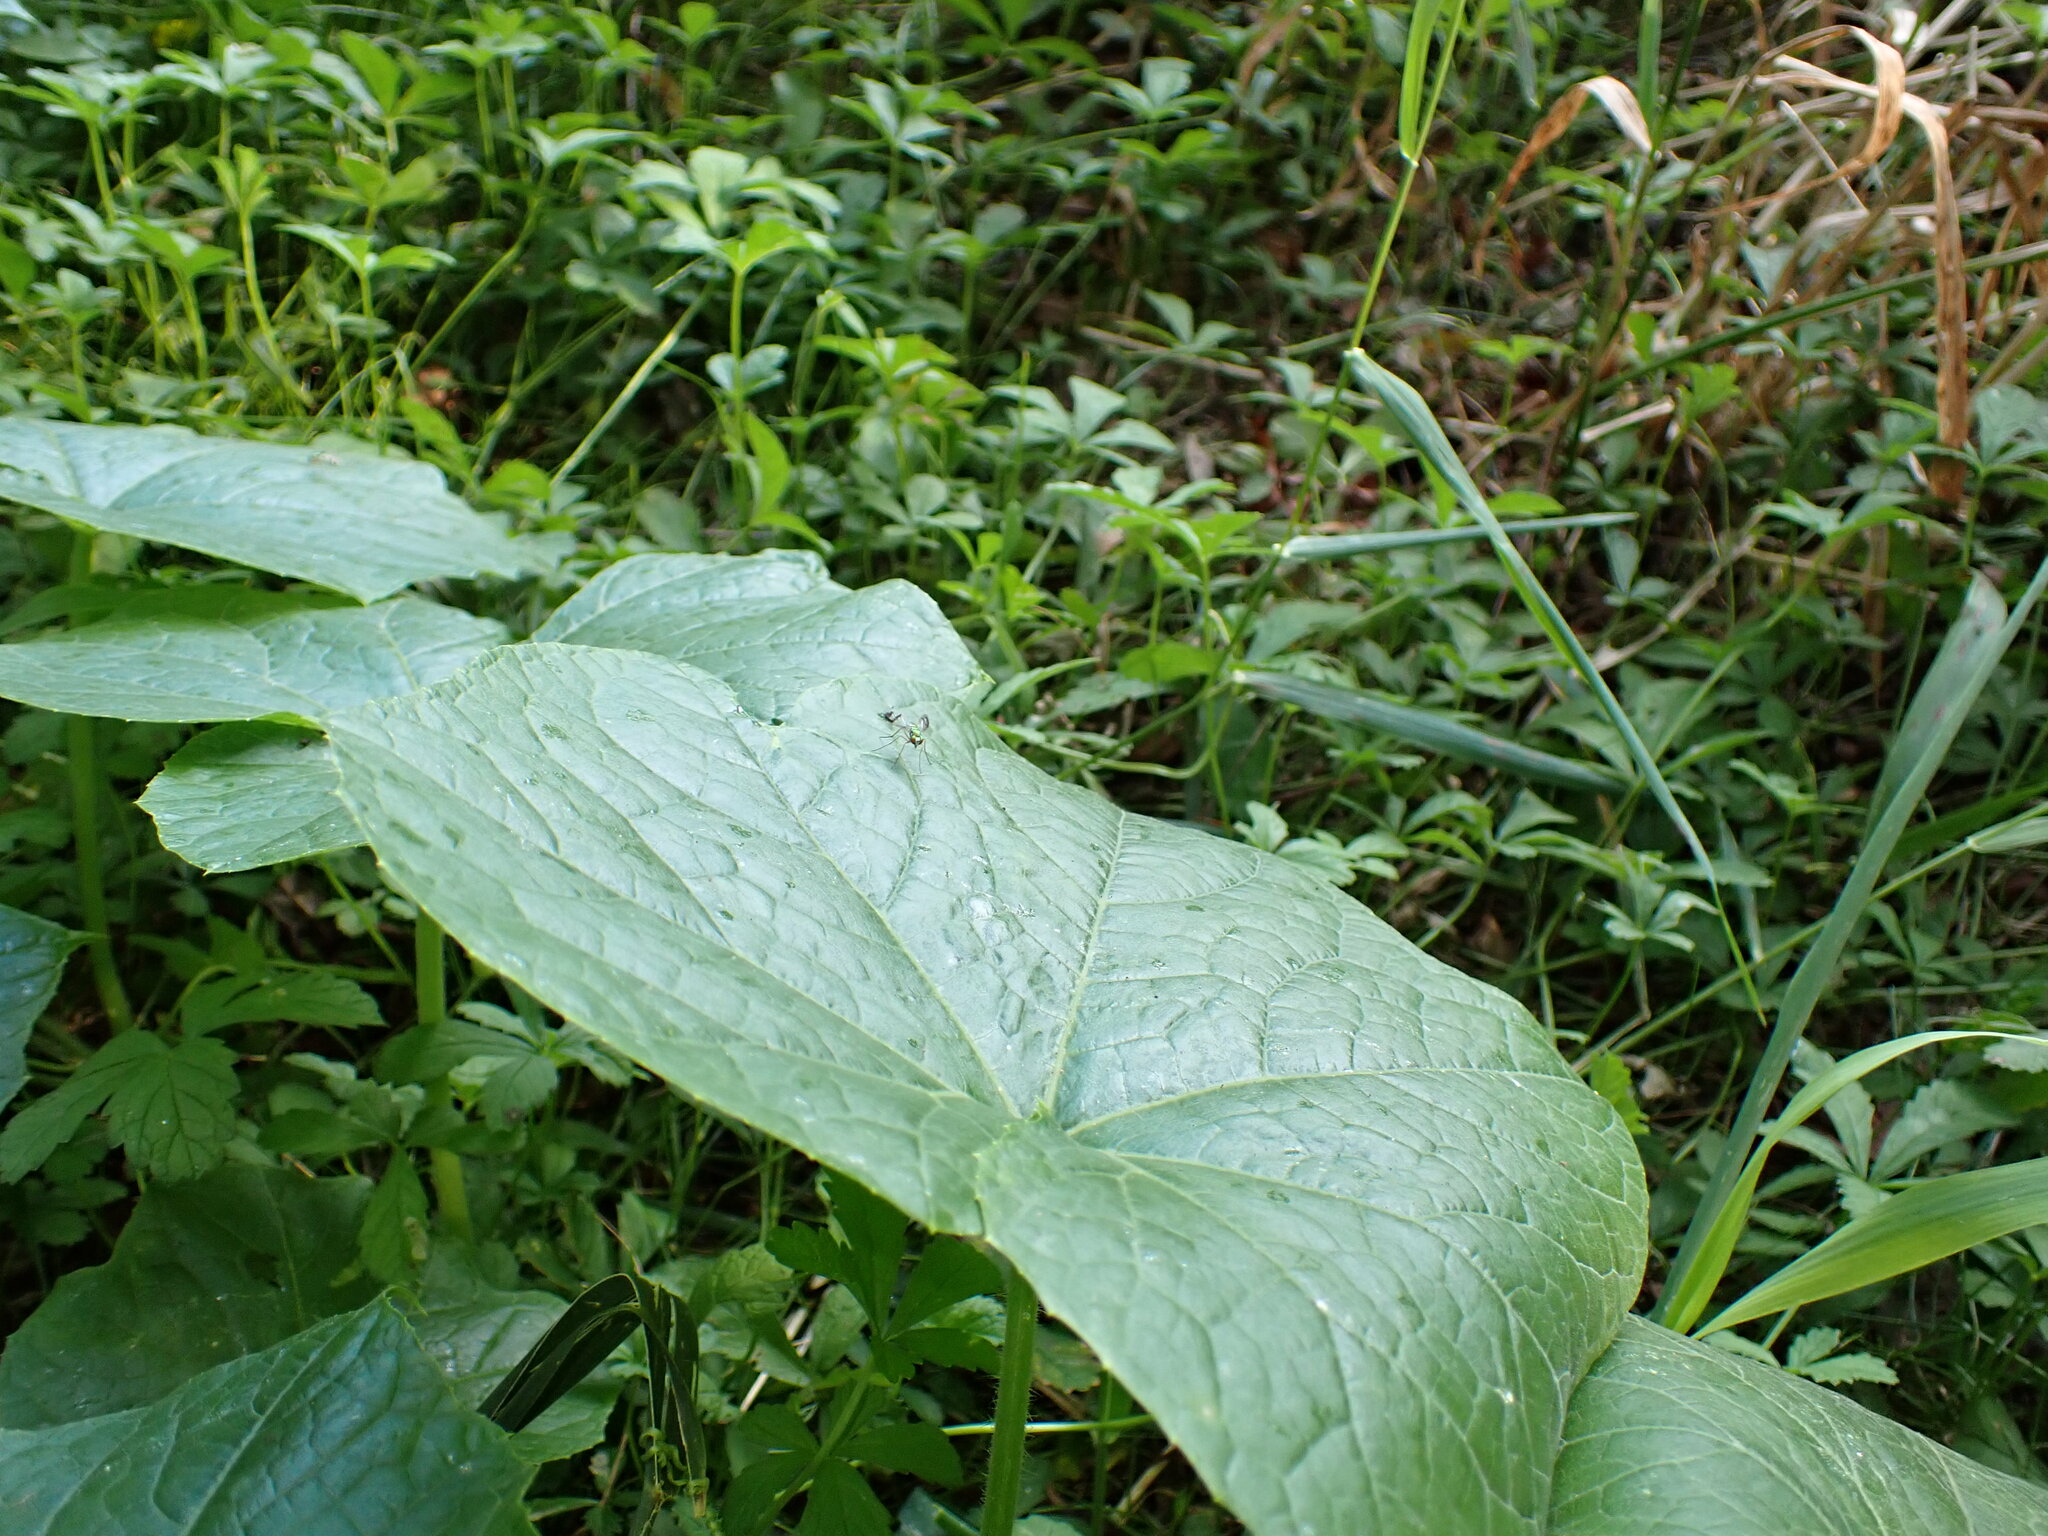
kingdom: Plantae
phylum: Tracheophyta
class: Magnoliopsida
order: Cucurbitales
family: Cucurbitaceae
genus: Sicyos
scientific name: Sicyos angulatus
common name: Angled burr cucumber
